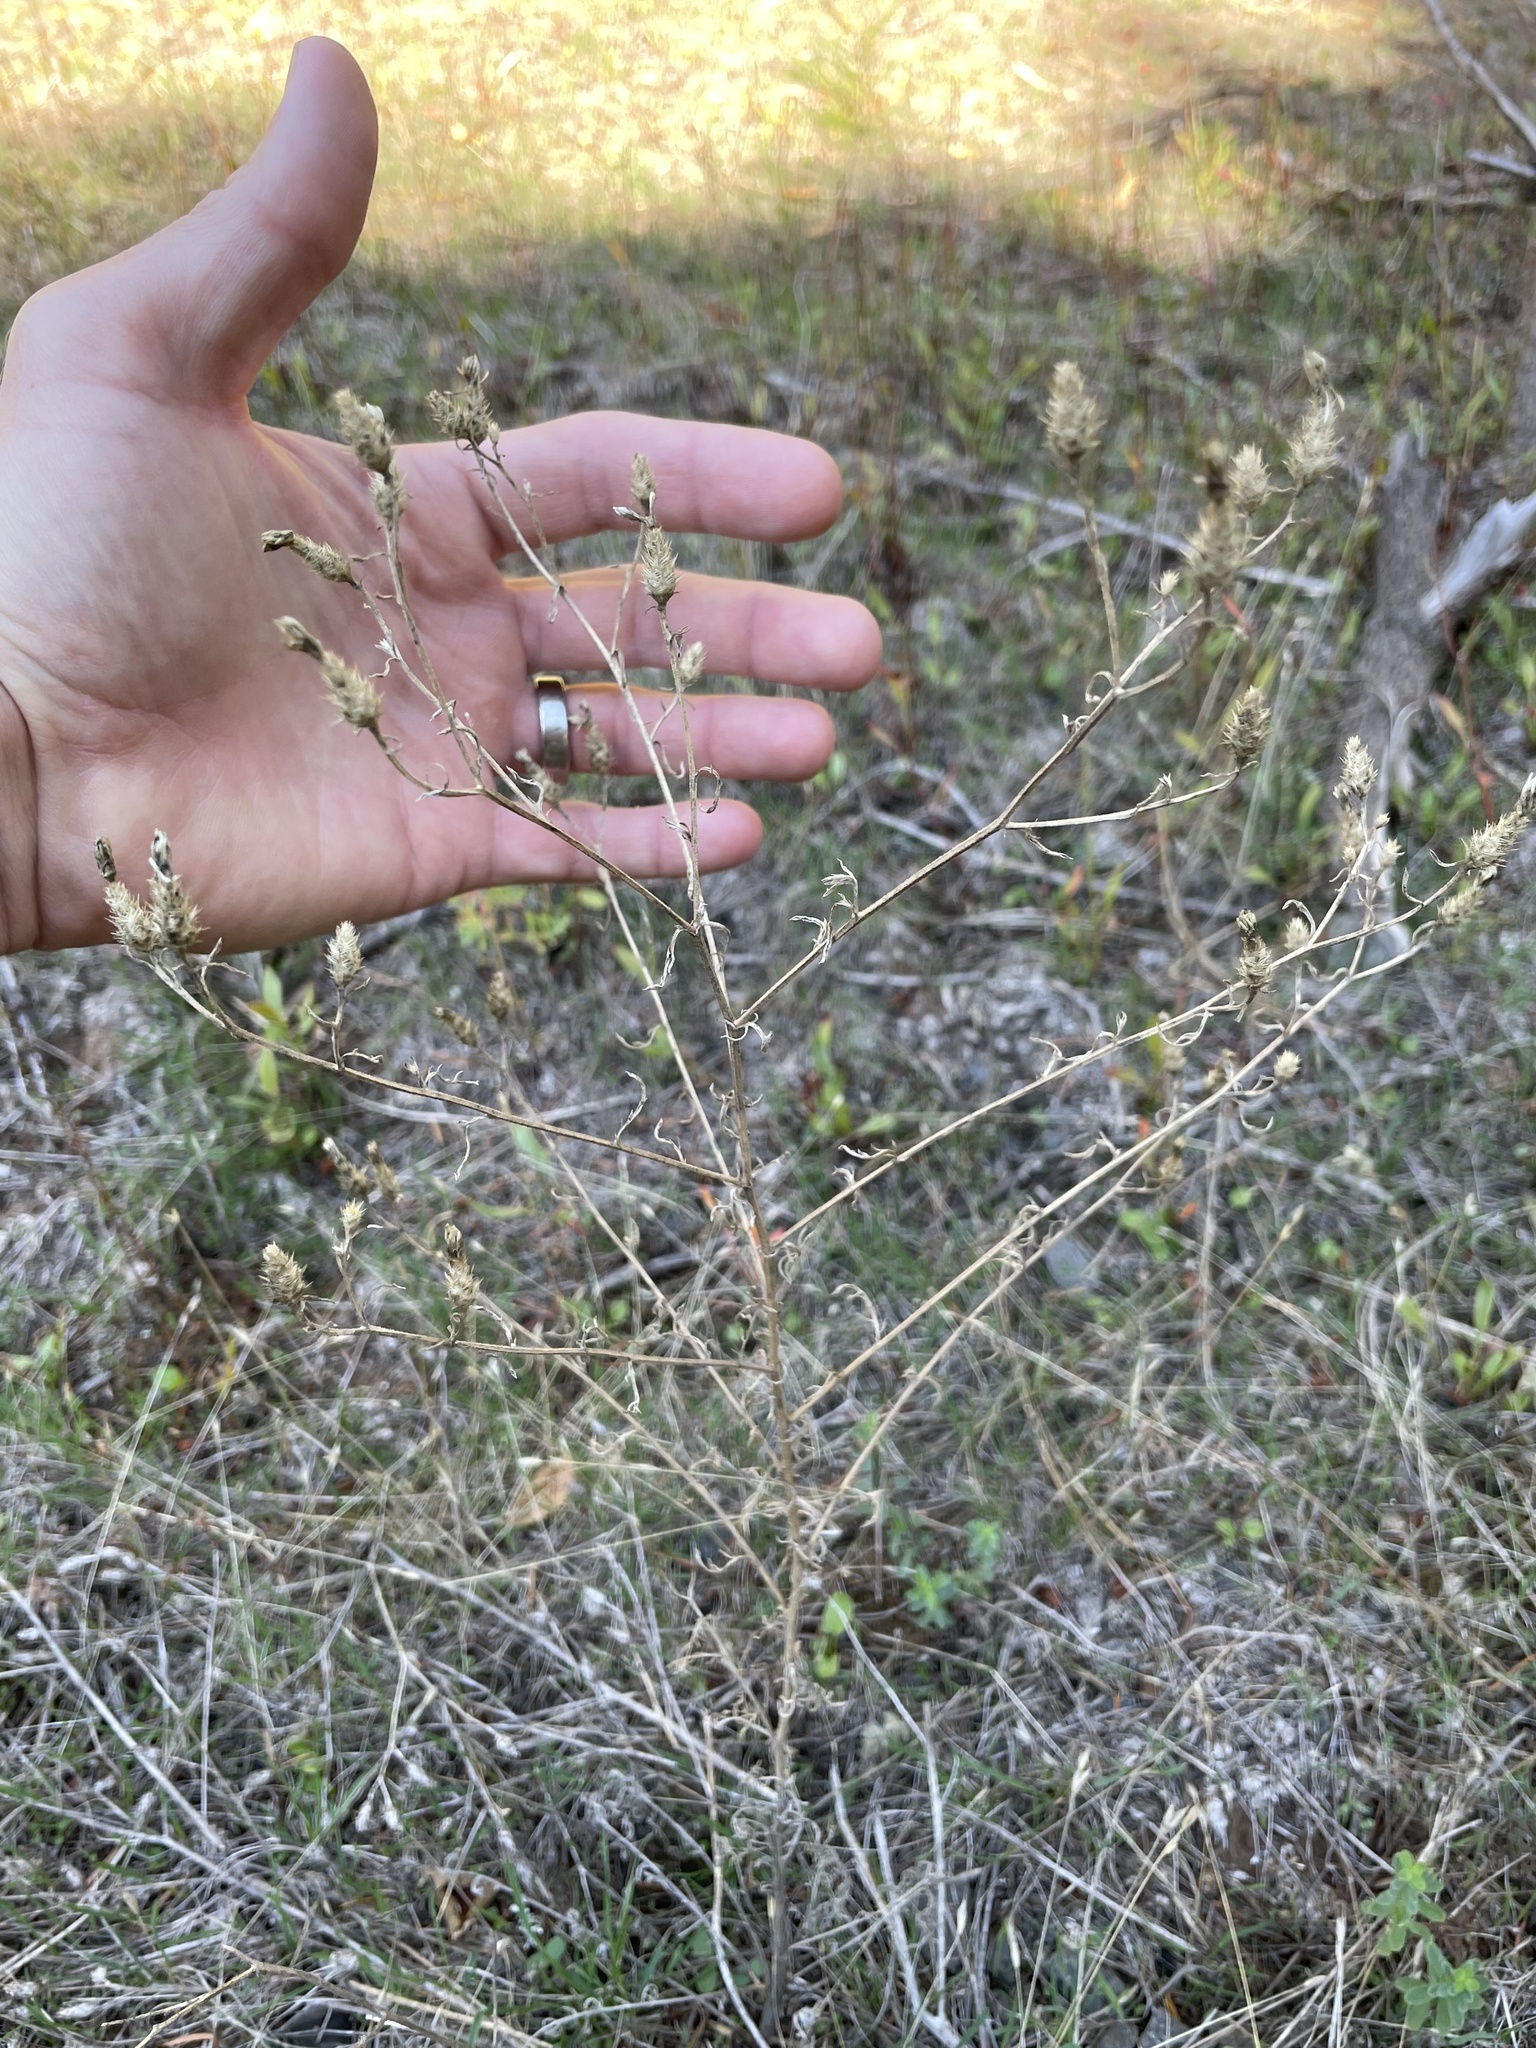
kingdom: Plantae
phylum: Tracheophyta
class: Magnoliopsida
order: Asterales
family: Asteraceae
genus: Centaurea
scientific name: Centaurea diffusa
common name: Diffuse knapweed
